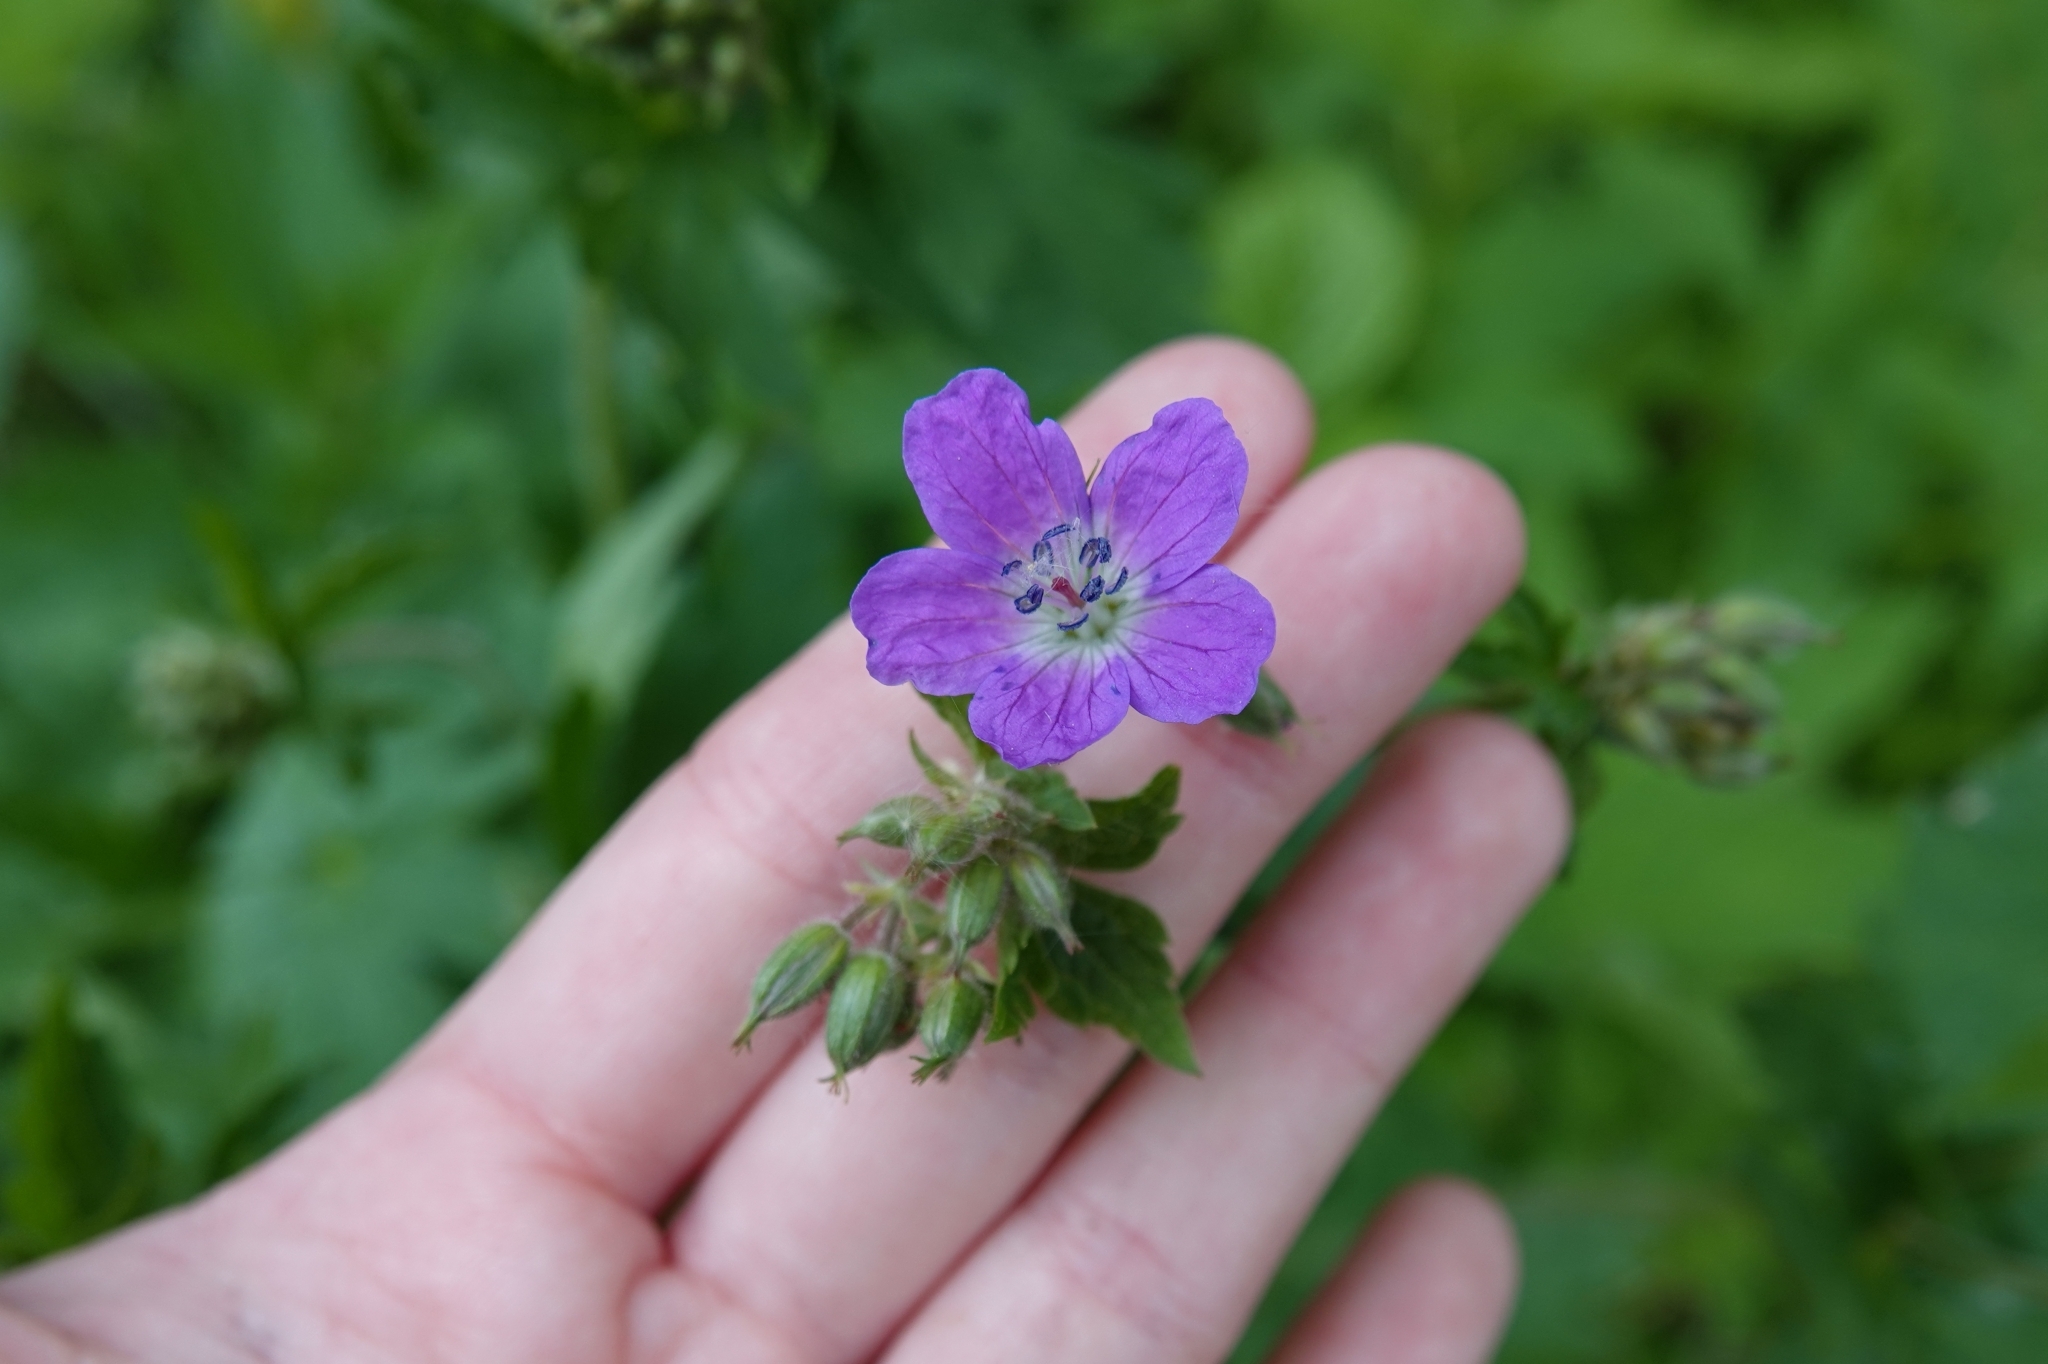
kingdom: Plantae
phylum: Tracheophyta
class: Magnoliopsida
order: Geraniales
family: Geraniaceae
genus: Geranium
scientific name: Geranium sylvaticum
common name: Wood crane's-bill
